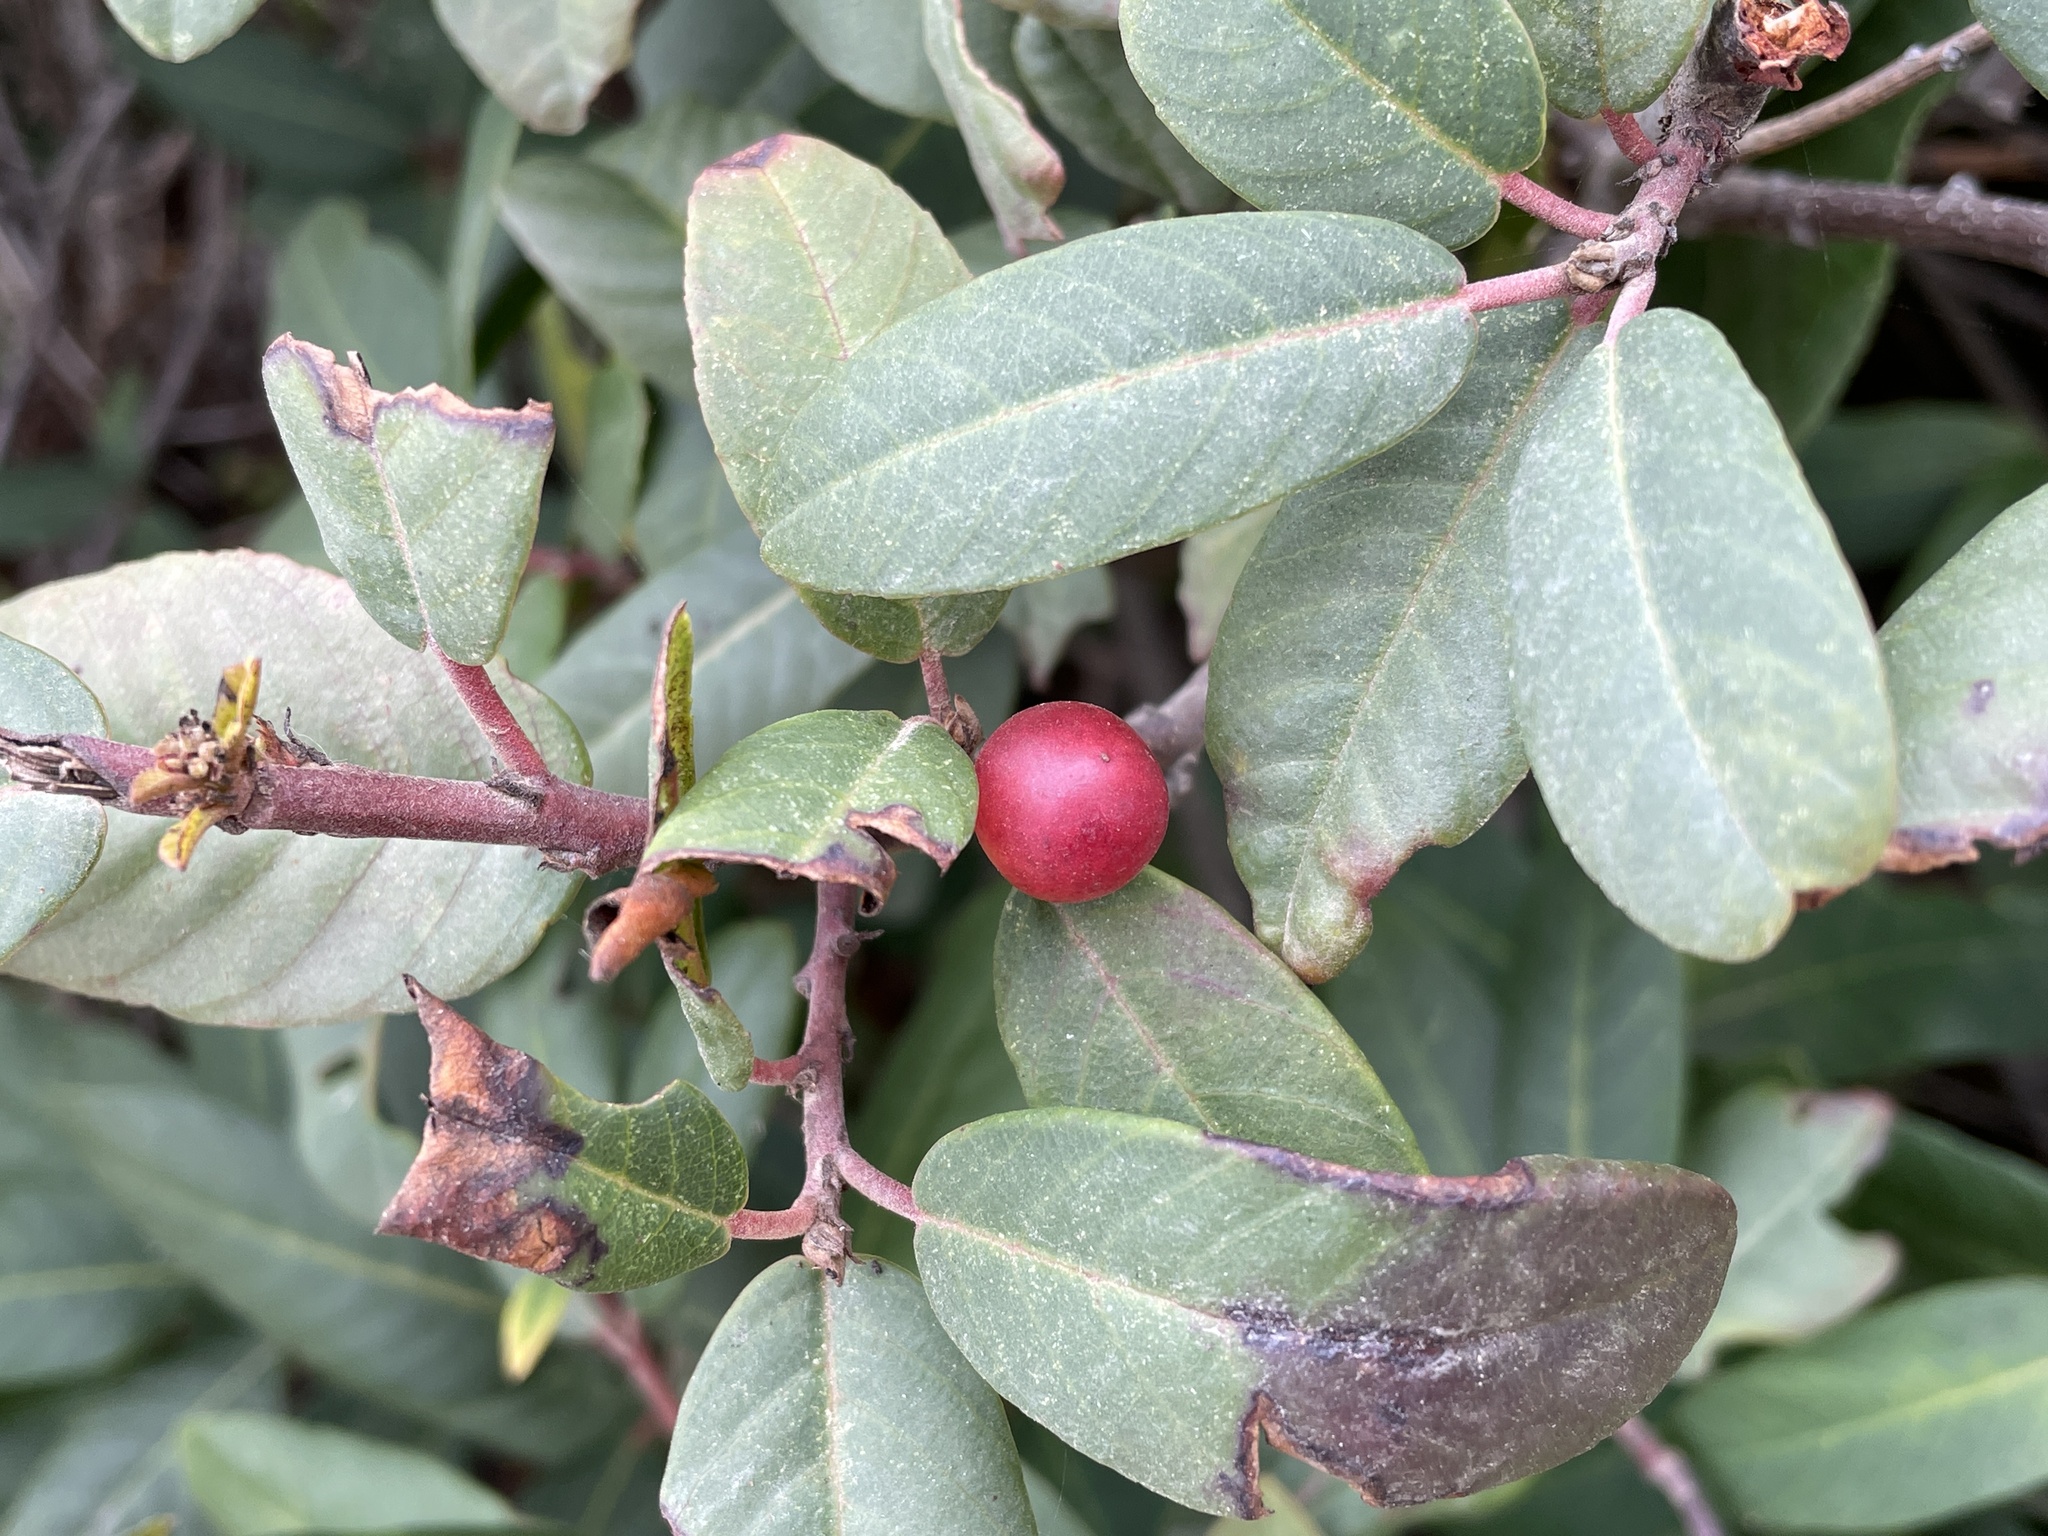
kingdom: Plantae
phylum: Tracheophyta
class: Magnoliopsida
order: Rosales
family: Rhamnaceae
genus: Frangula
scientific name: Frangula californica
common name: California buckthorn
